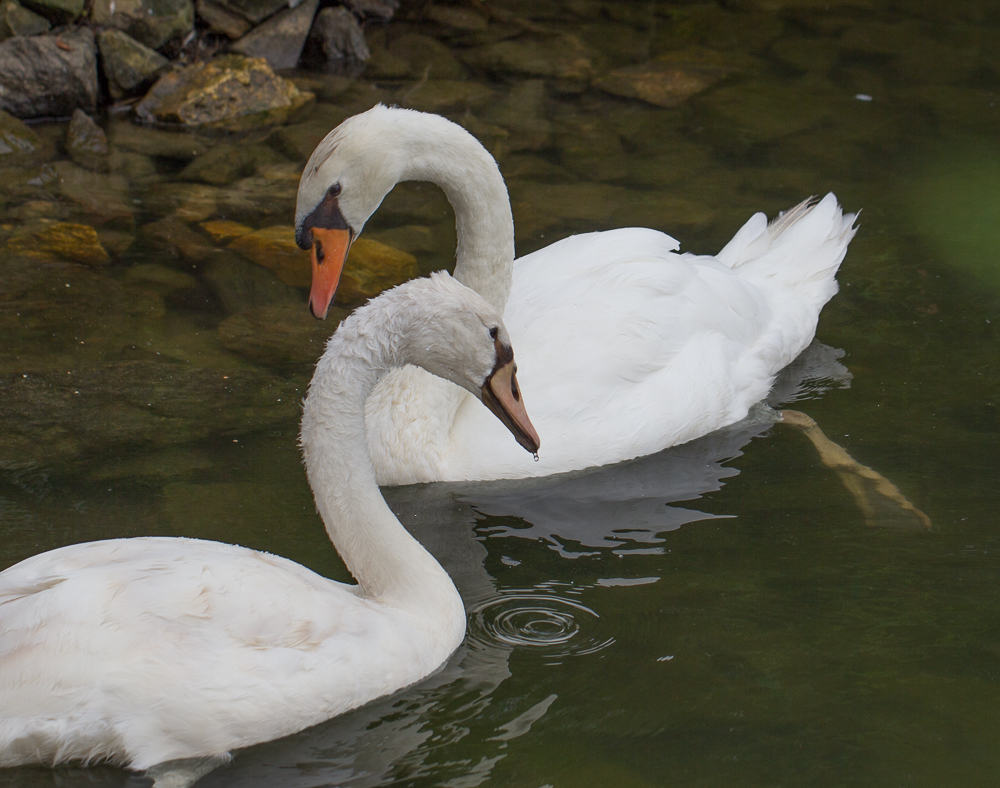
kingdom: Animalia
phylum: Chordata
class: Aves
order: Anseriformes
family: Anatidae
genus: Cygnus
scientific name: Cygnus olor
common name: Mute swan
